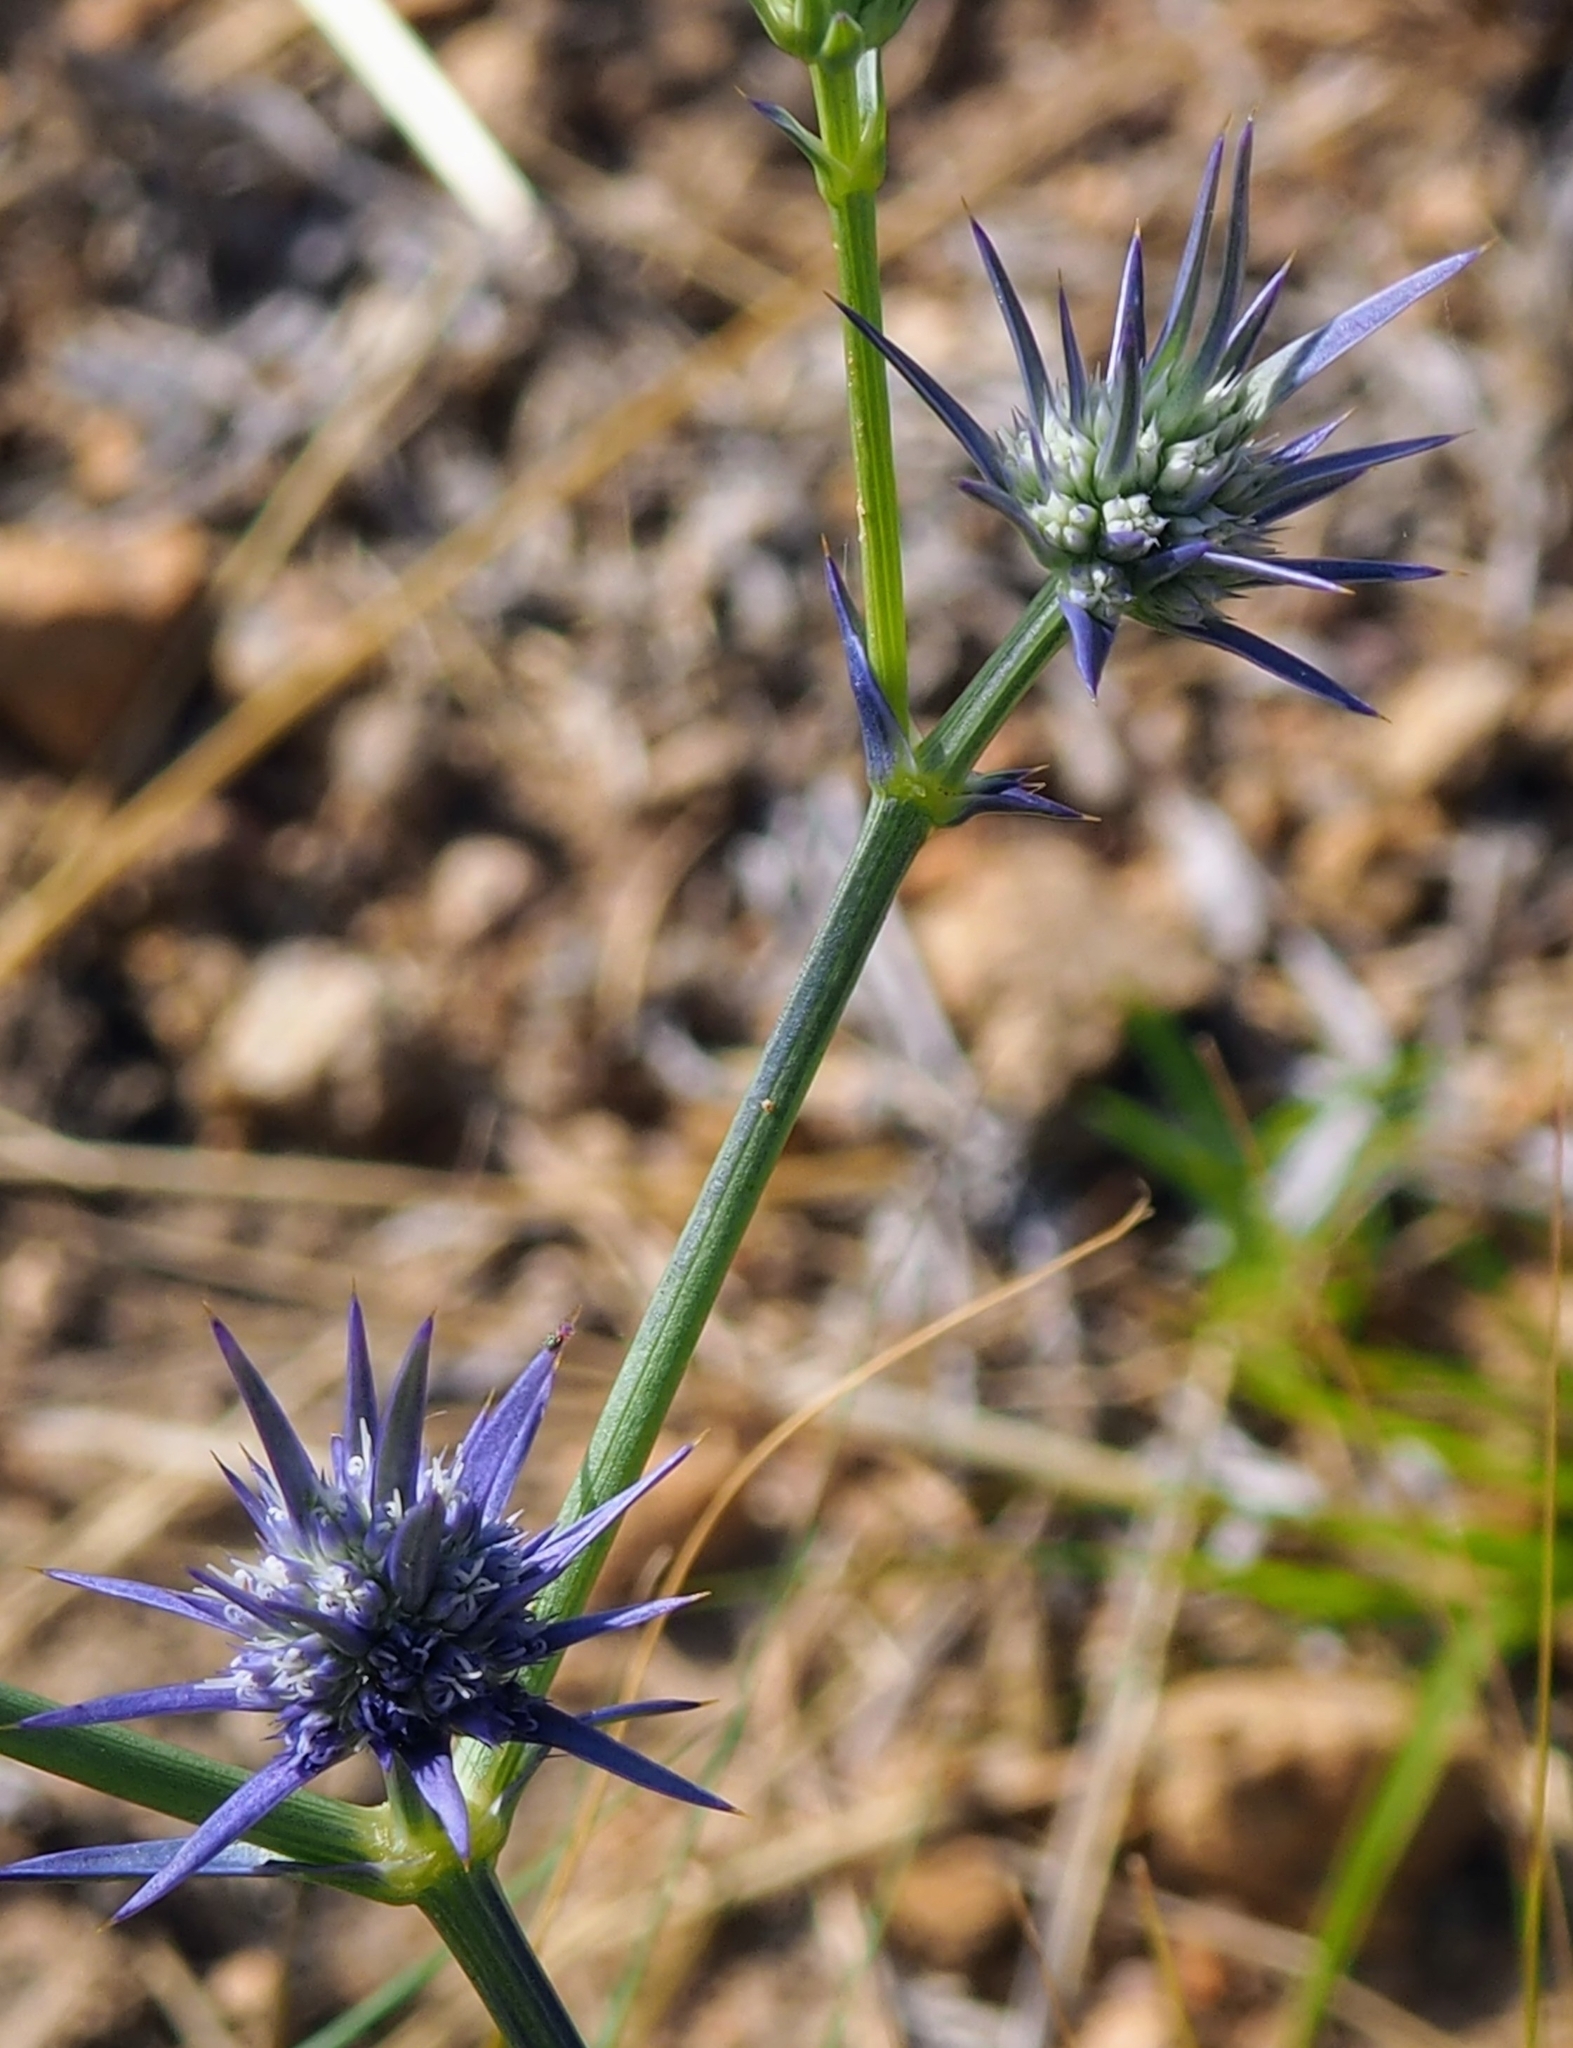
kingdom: Plantae
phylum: Tracheophyta
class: Magnoliopsida
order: Apiales
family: Apiaceae
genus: Eryngium
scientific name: Eryngium ovinum
